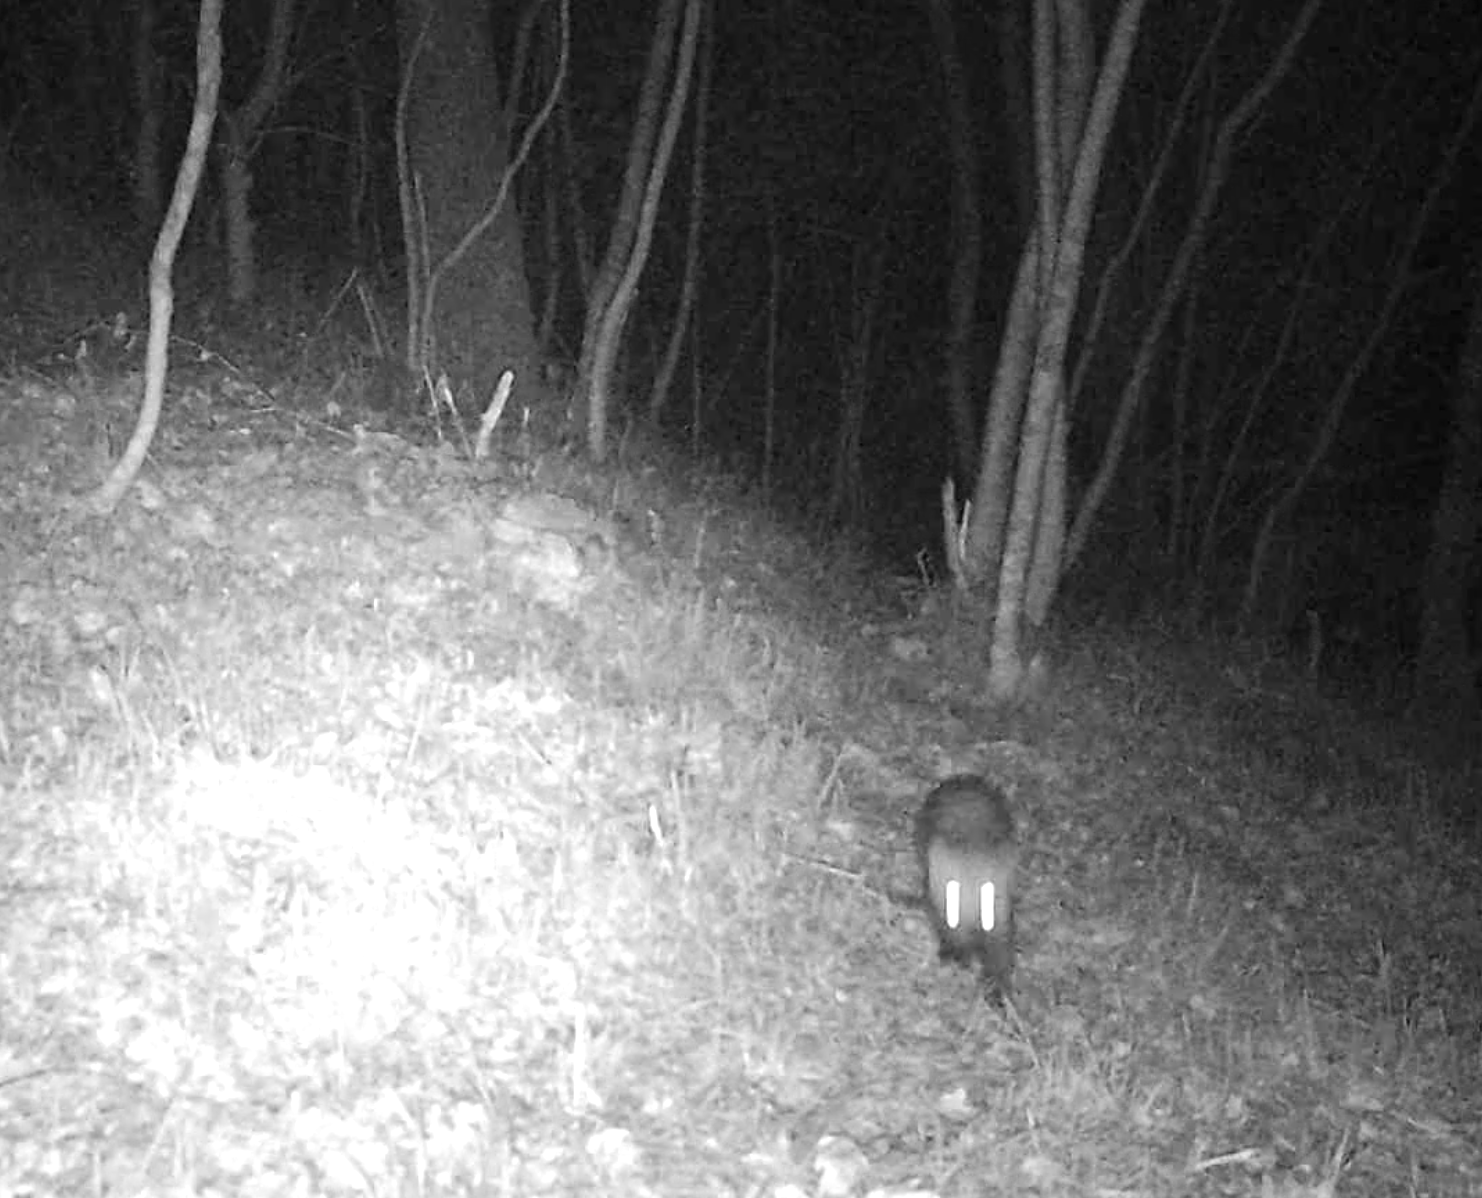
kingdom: Animalia
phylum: Chordata
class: Mammalia
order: Carnivora
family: Mustelidae
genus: Martes
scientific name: Martes foina
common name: Beech marten
